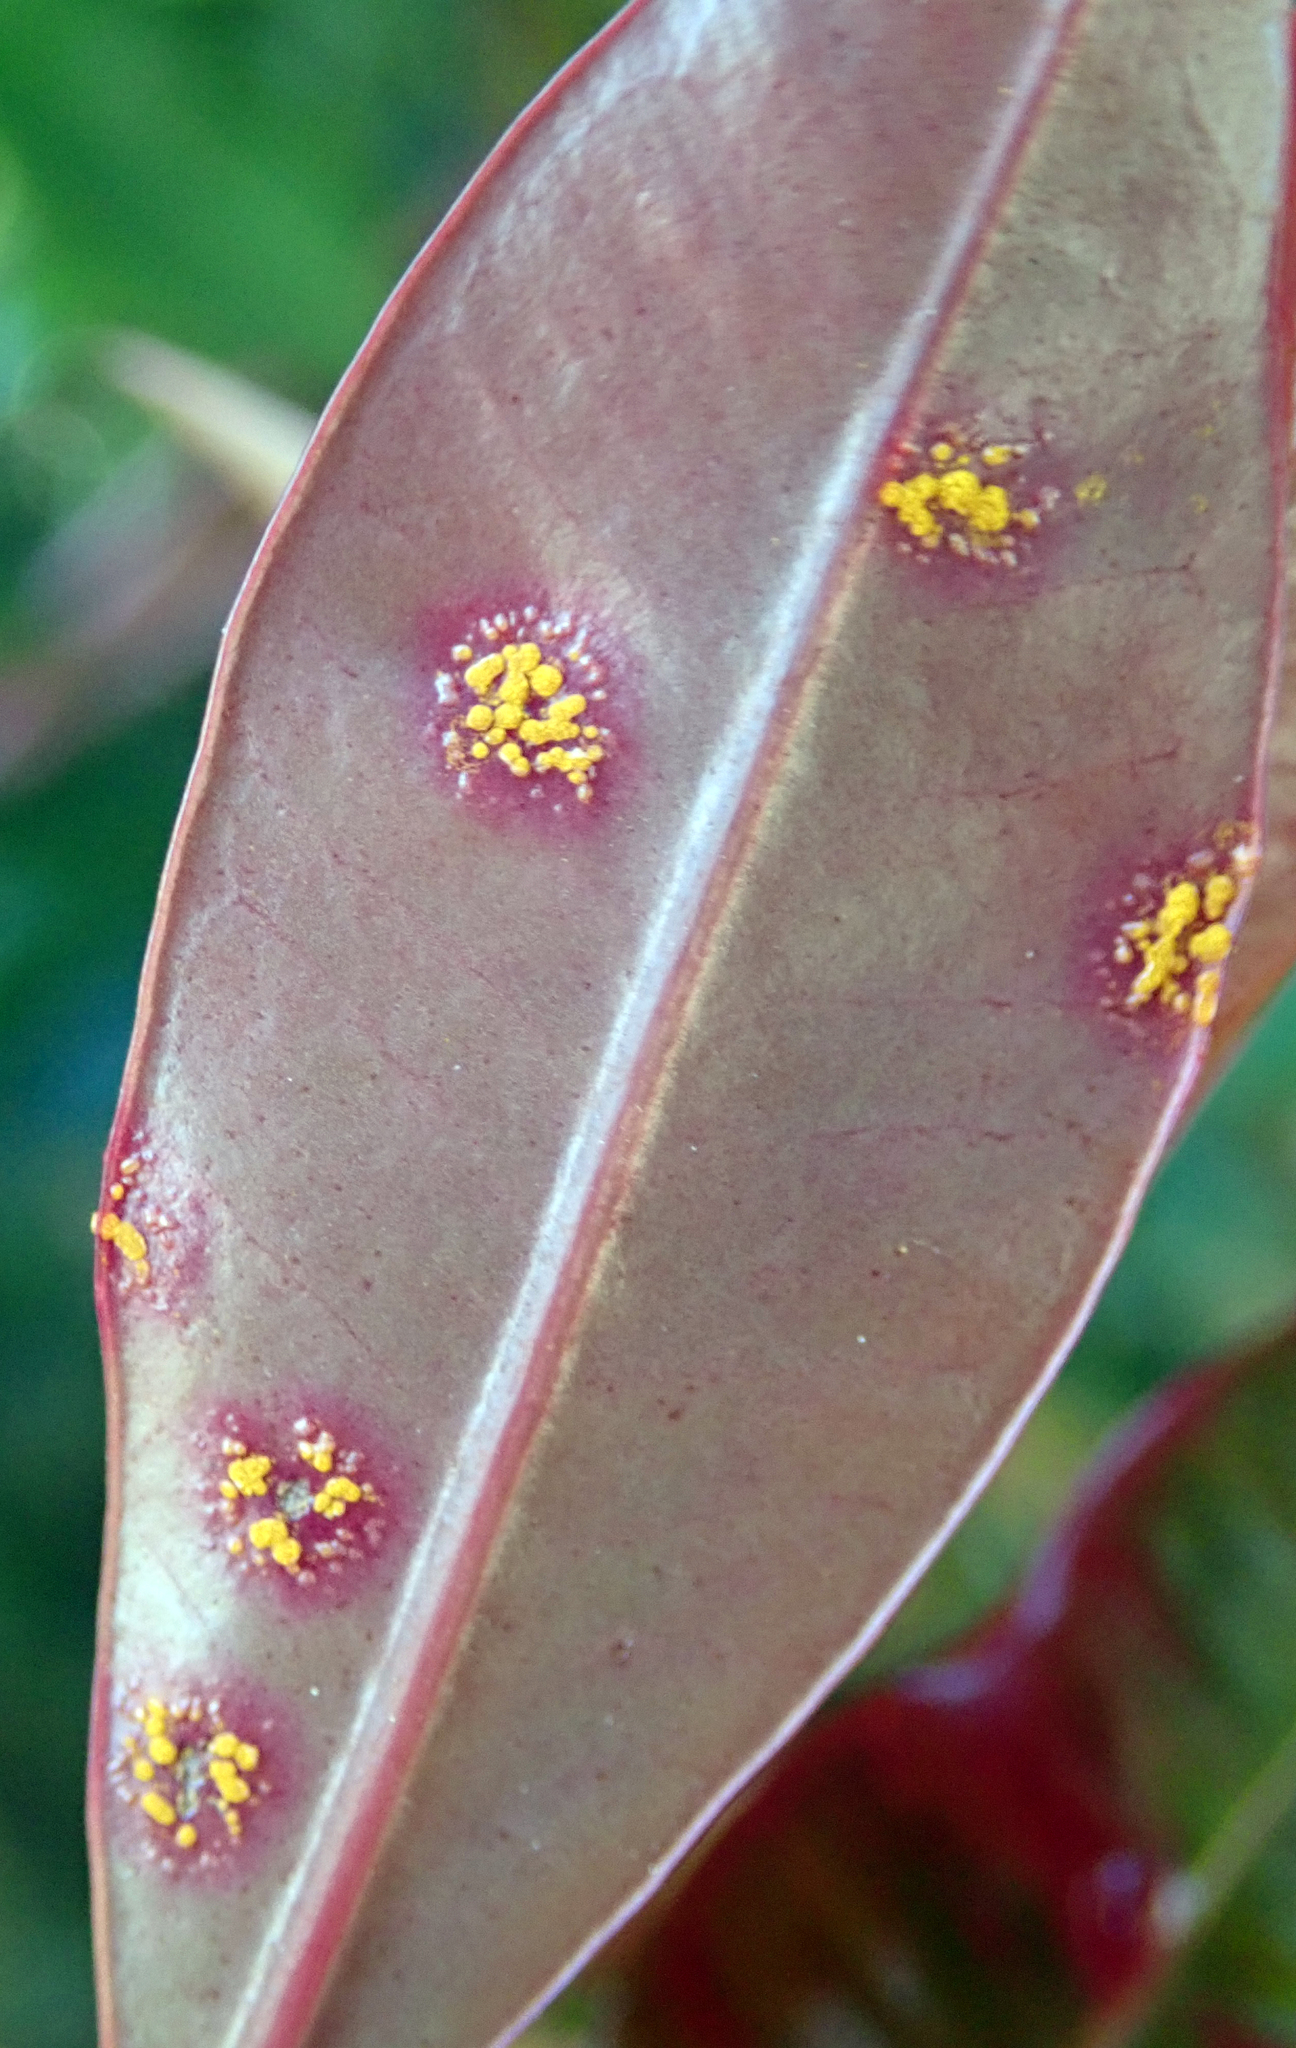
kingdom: Fungi
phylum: Basidiomycota
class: Pucciniomycetes
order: Pucciniales
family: Sphaerophragmiaceae
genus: Austropuccinia
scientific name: Austropuccinia psidii
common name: Myrtle rust
